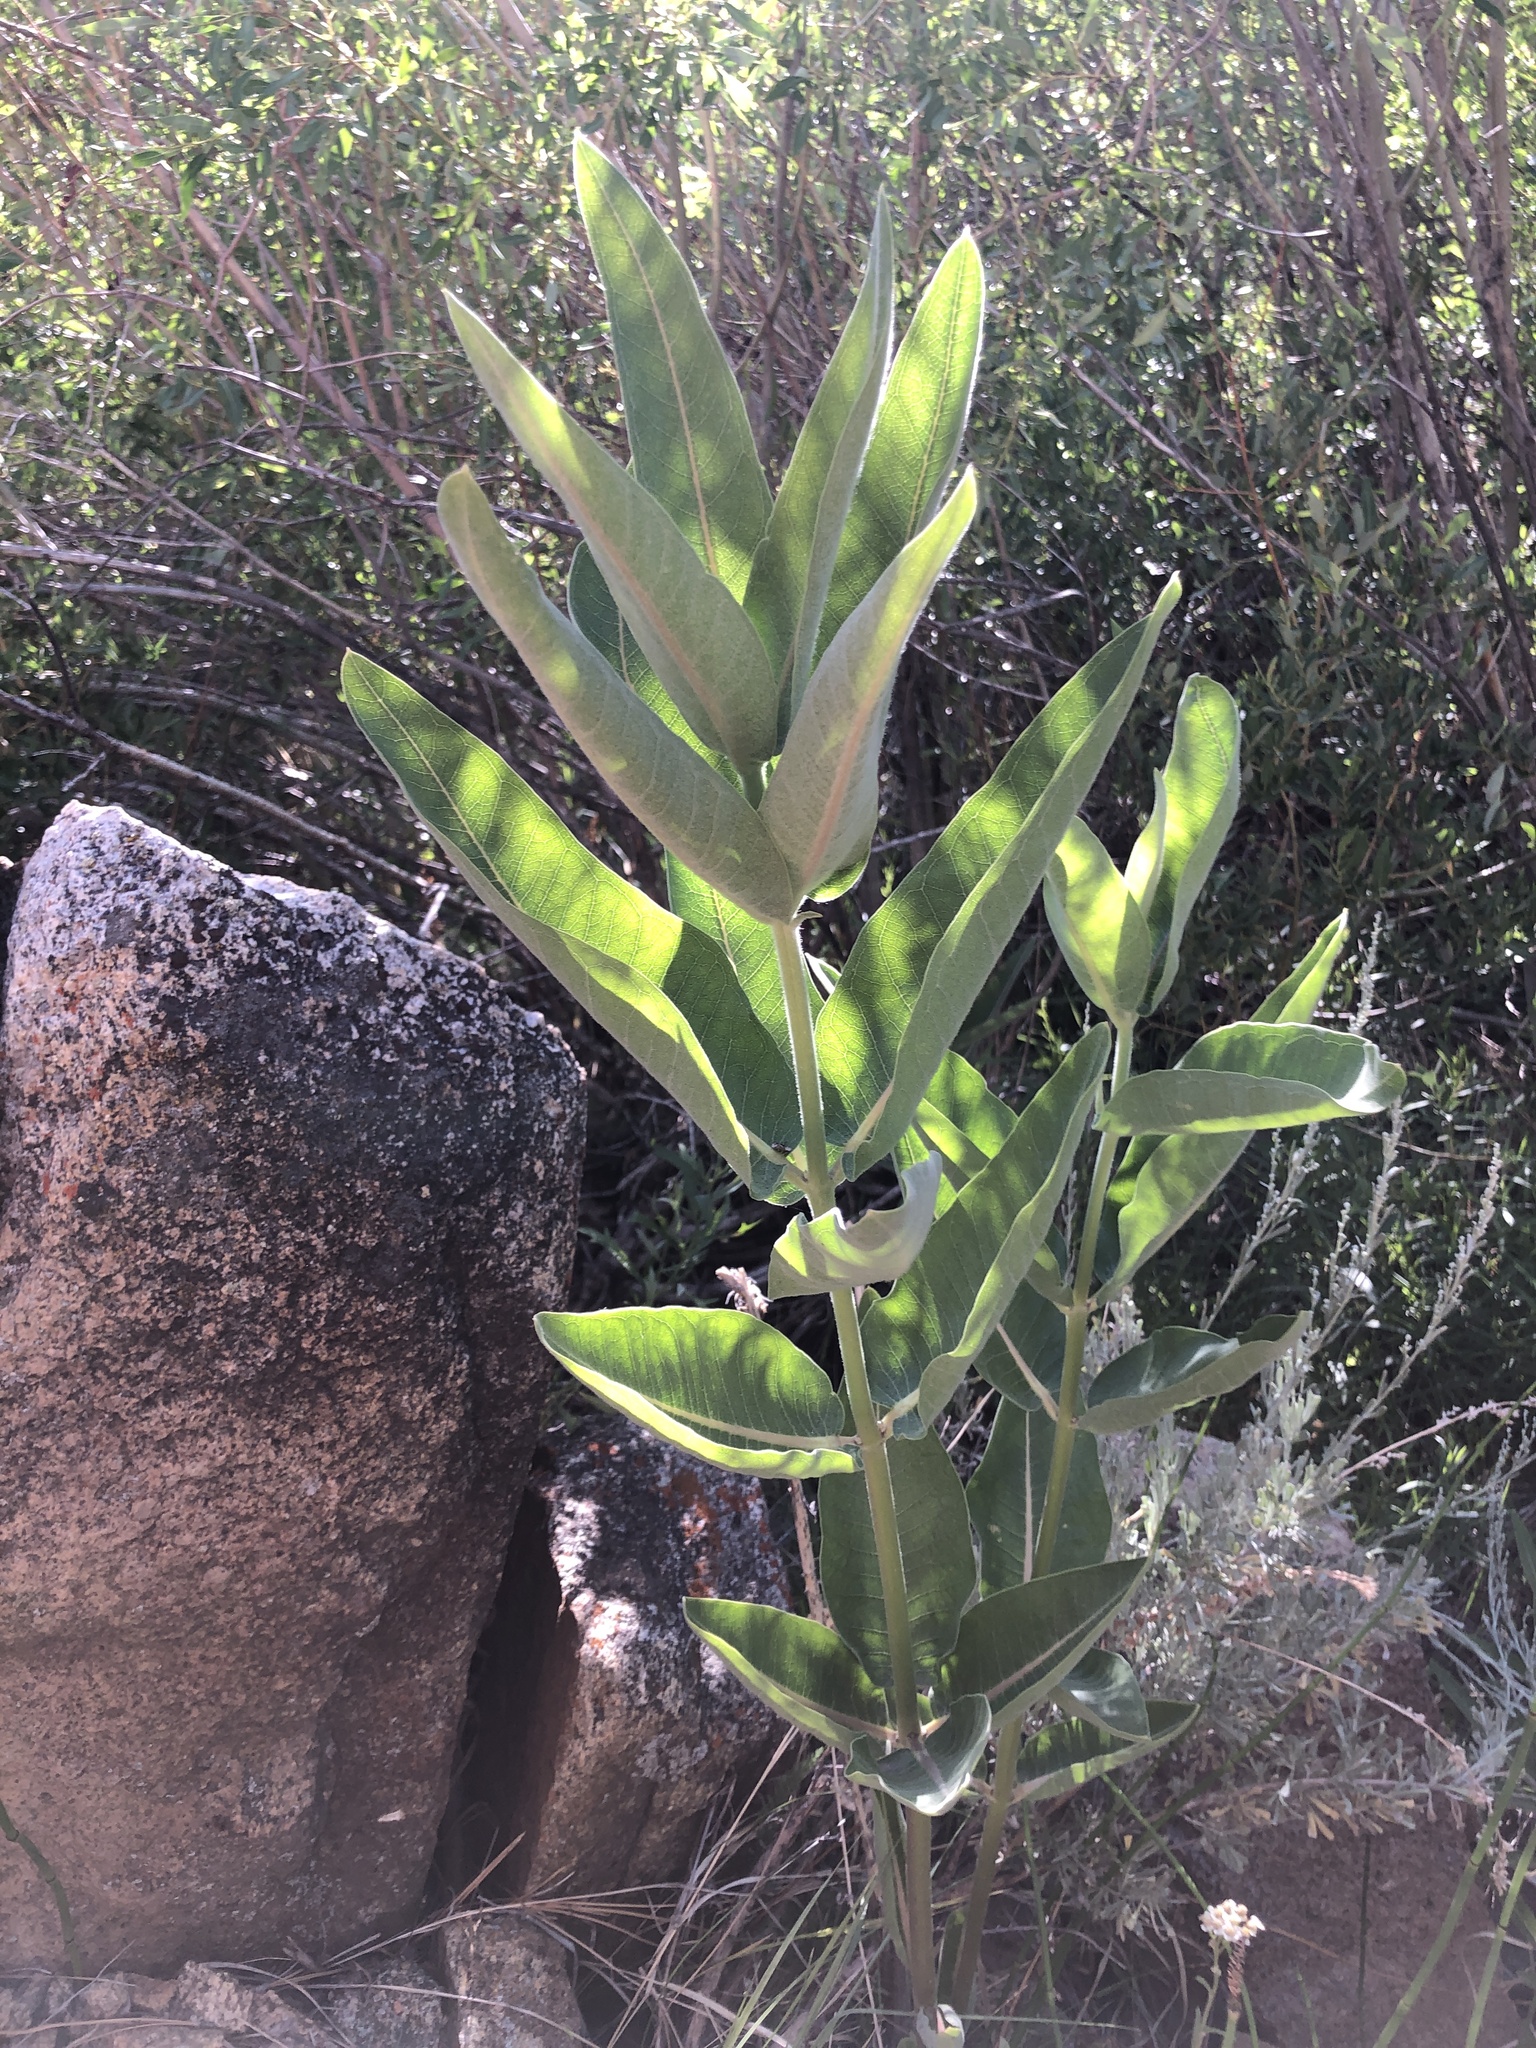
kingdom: Plantae
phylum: Tracheophyta
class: Magnoliopsida
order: Gentianales
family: Apocynaceae
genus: Asclepias
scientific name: Asclepias speciosa
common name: Showy milkweed
